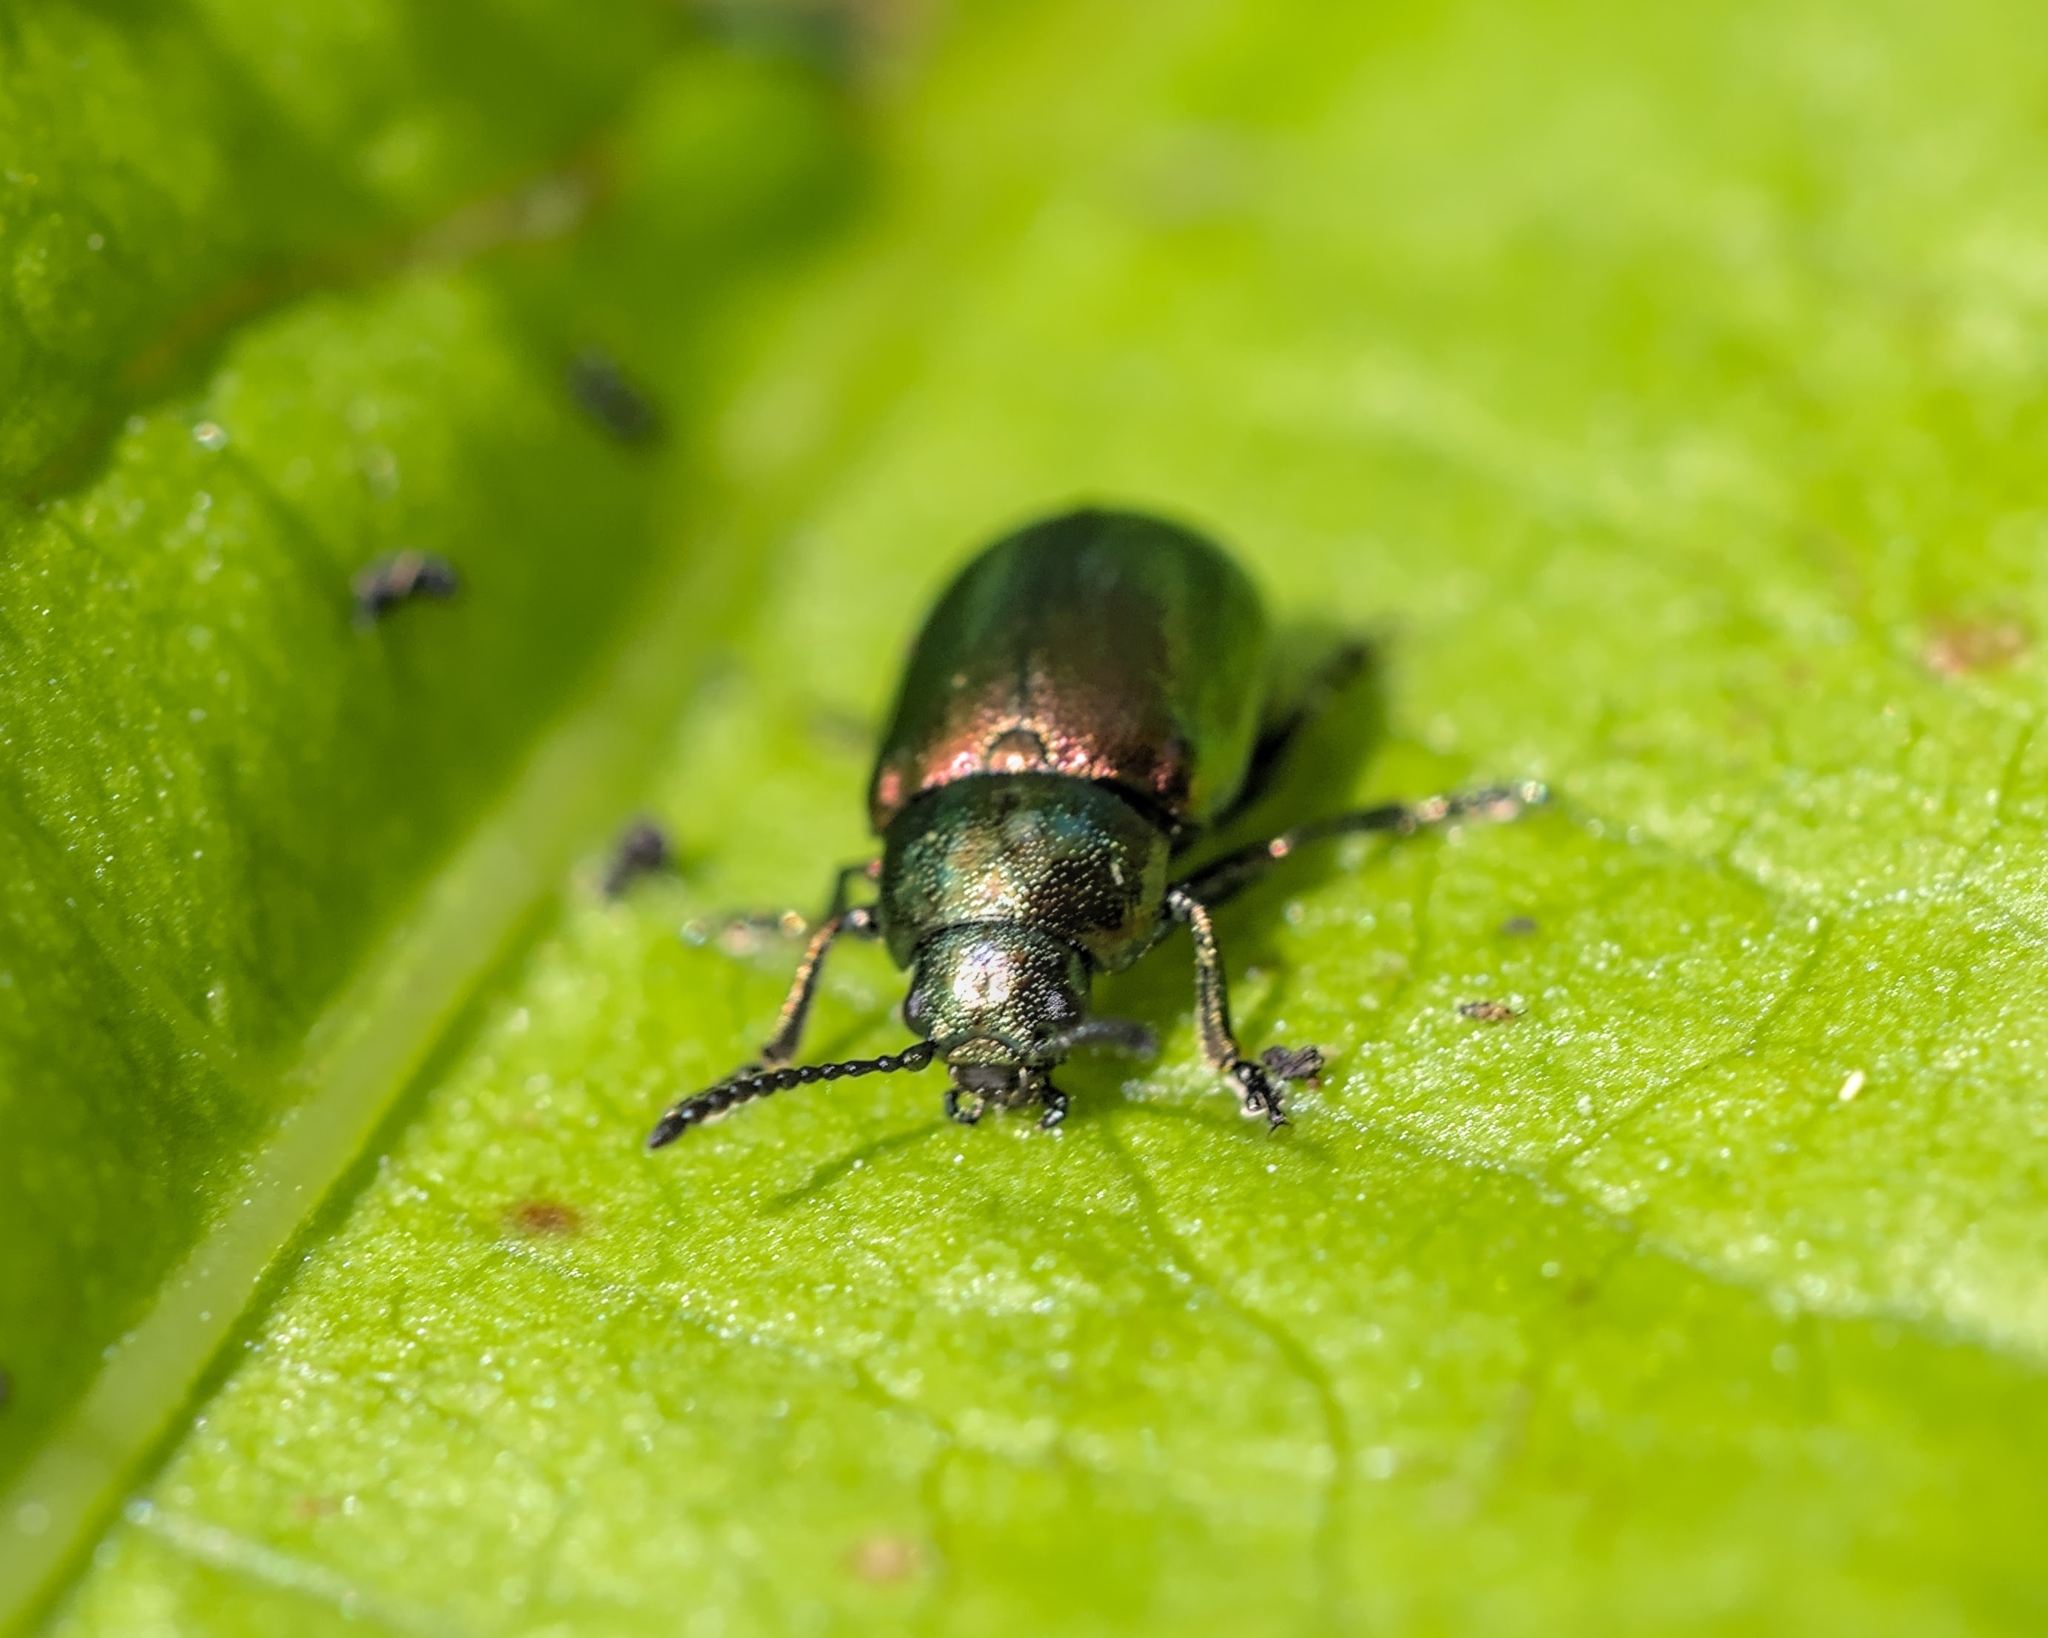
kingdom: Animalia
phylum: Arthropoda
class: Insecta
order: Coleoptera
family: Chrysomelidae
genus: Gastrophysa
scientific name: Gastrophysa viridula
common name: Green dock beetle
